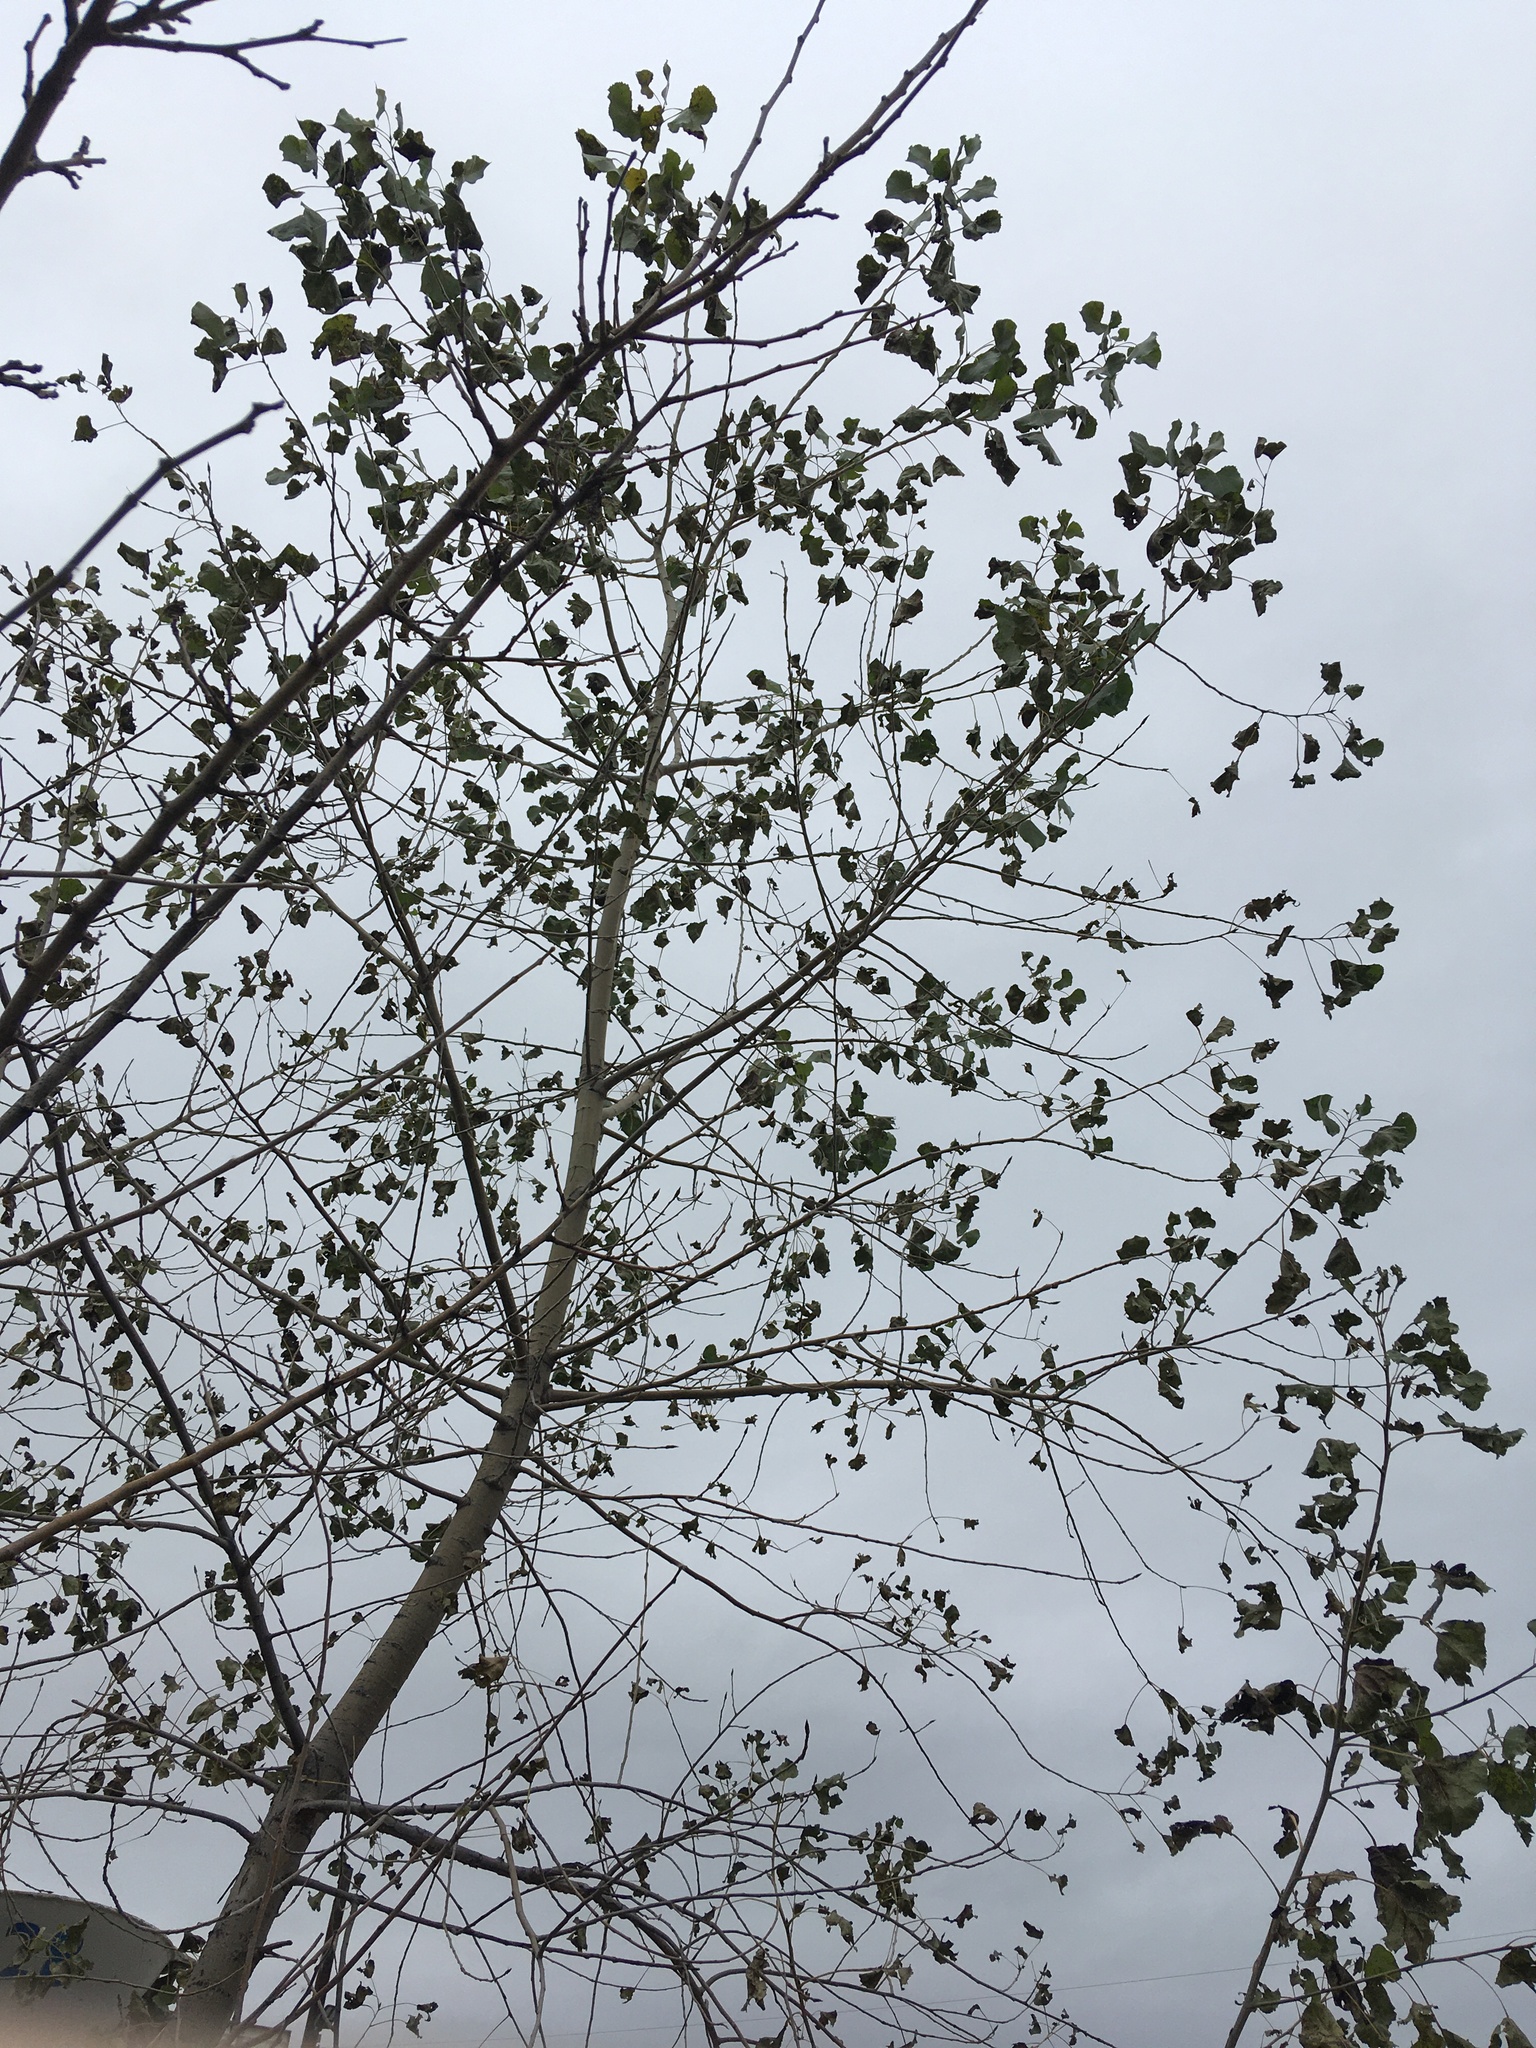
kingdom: Plantae
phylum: Tracheophyta
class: Magnoliopsida
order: Malpighiales
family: Salicaceae
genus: Populus
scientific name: Populus deltoides
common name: Eastern cottonwood
